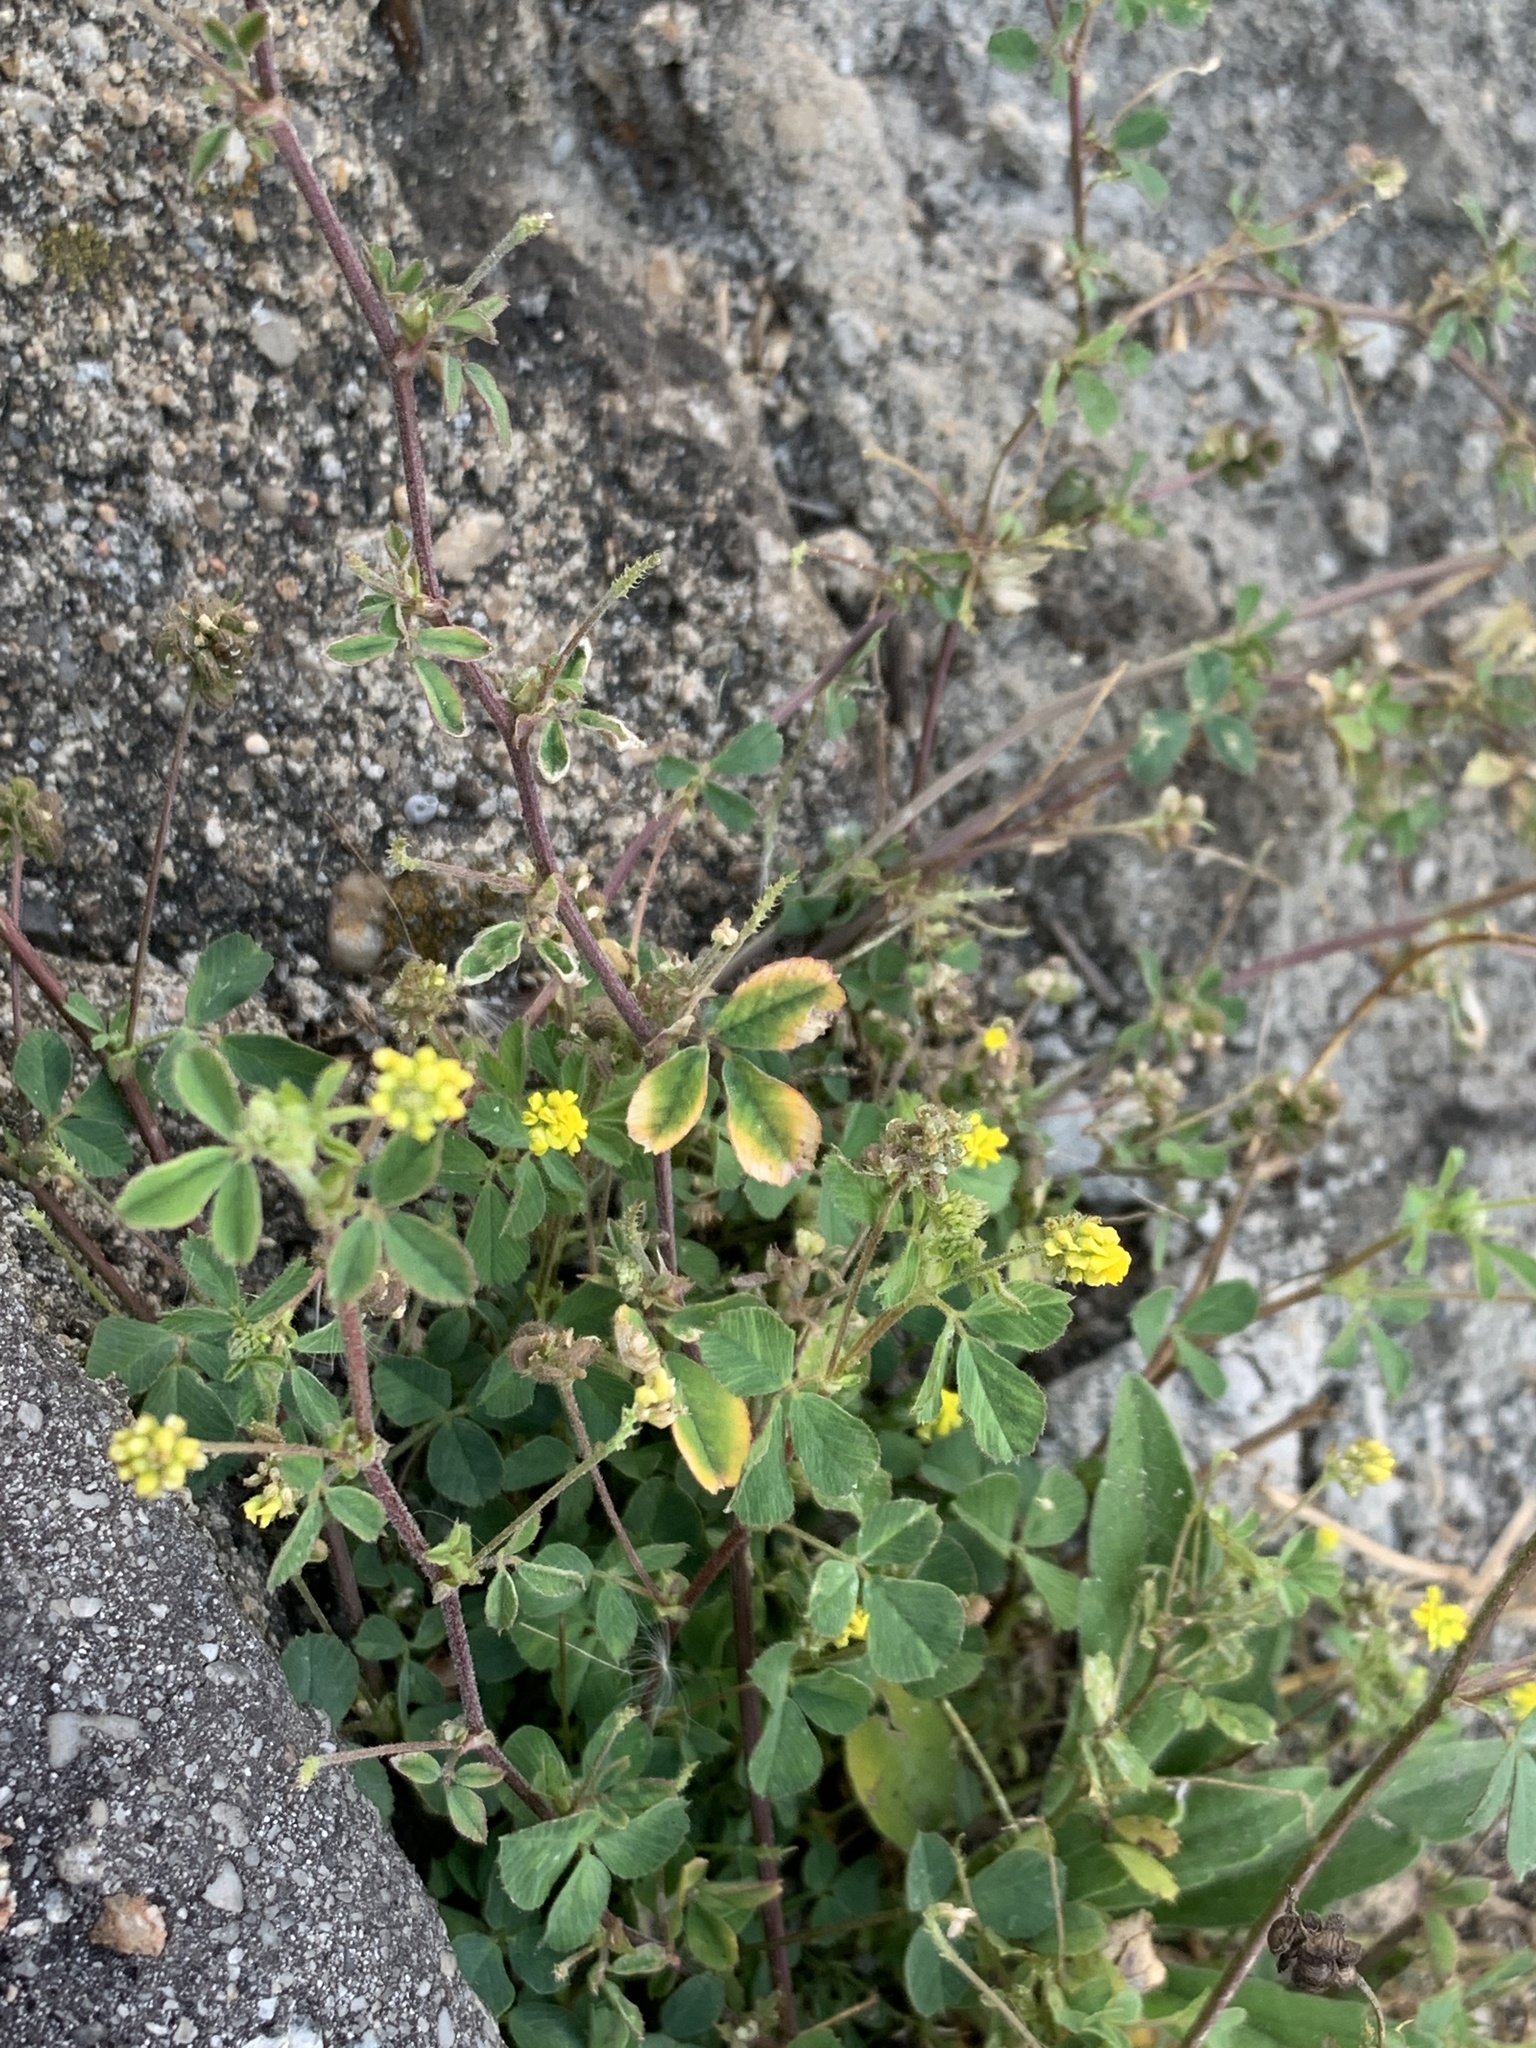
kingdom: Plantae
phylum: Tracheophyta
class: Magnoliopsida
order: Fabales
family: Fabaceae
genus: Medicago
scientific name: Medicago lupulina
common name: Black medick
